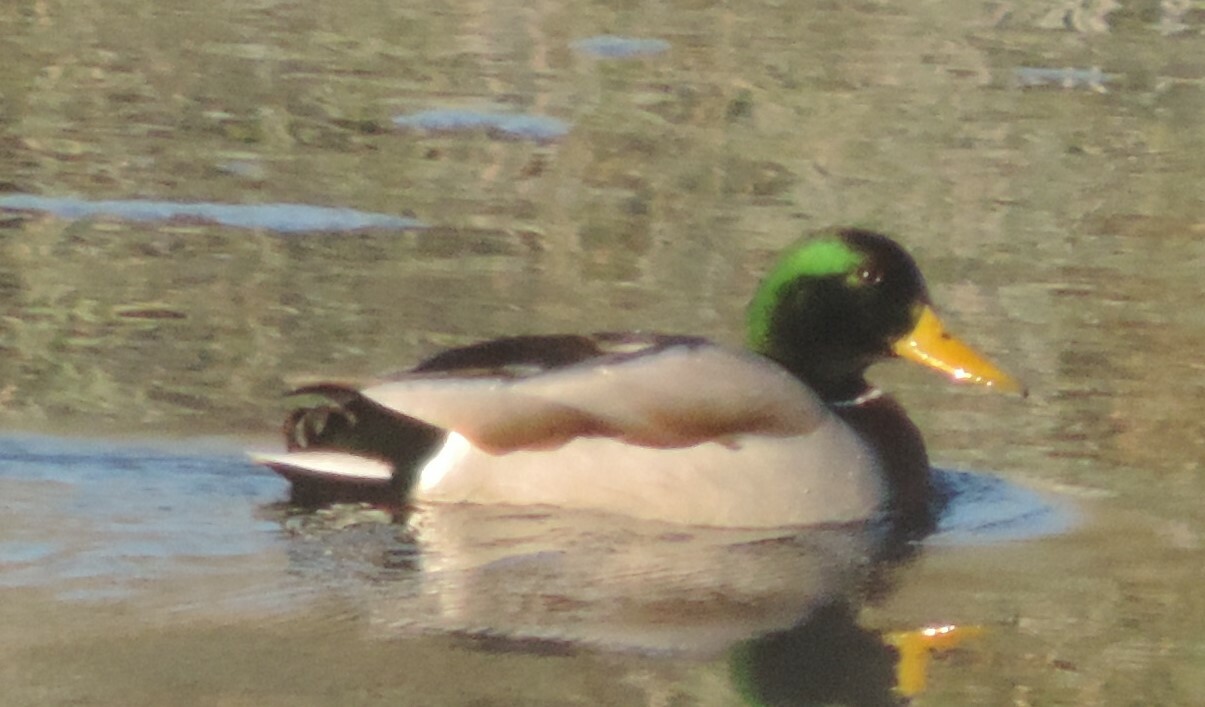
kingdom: Animalia
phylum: Chordata
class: Aves
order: Anseriformes
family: Anatidae
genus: Anas
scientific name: Anas platyrhynchos
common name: Mallard
